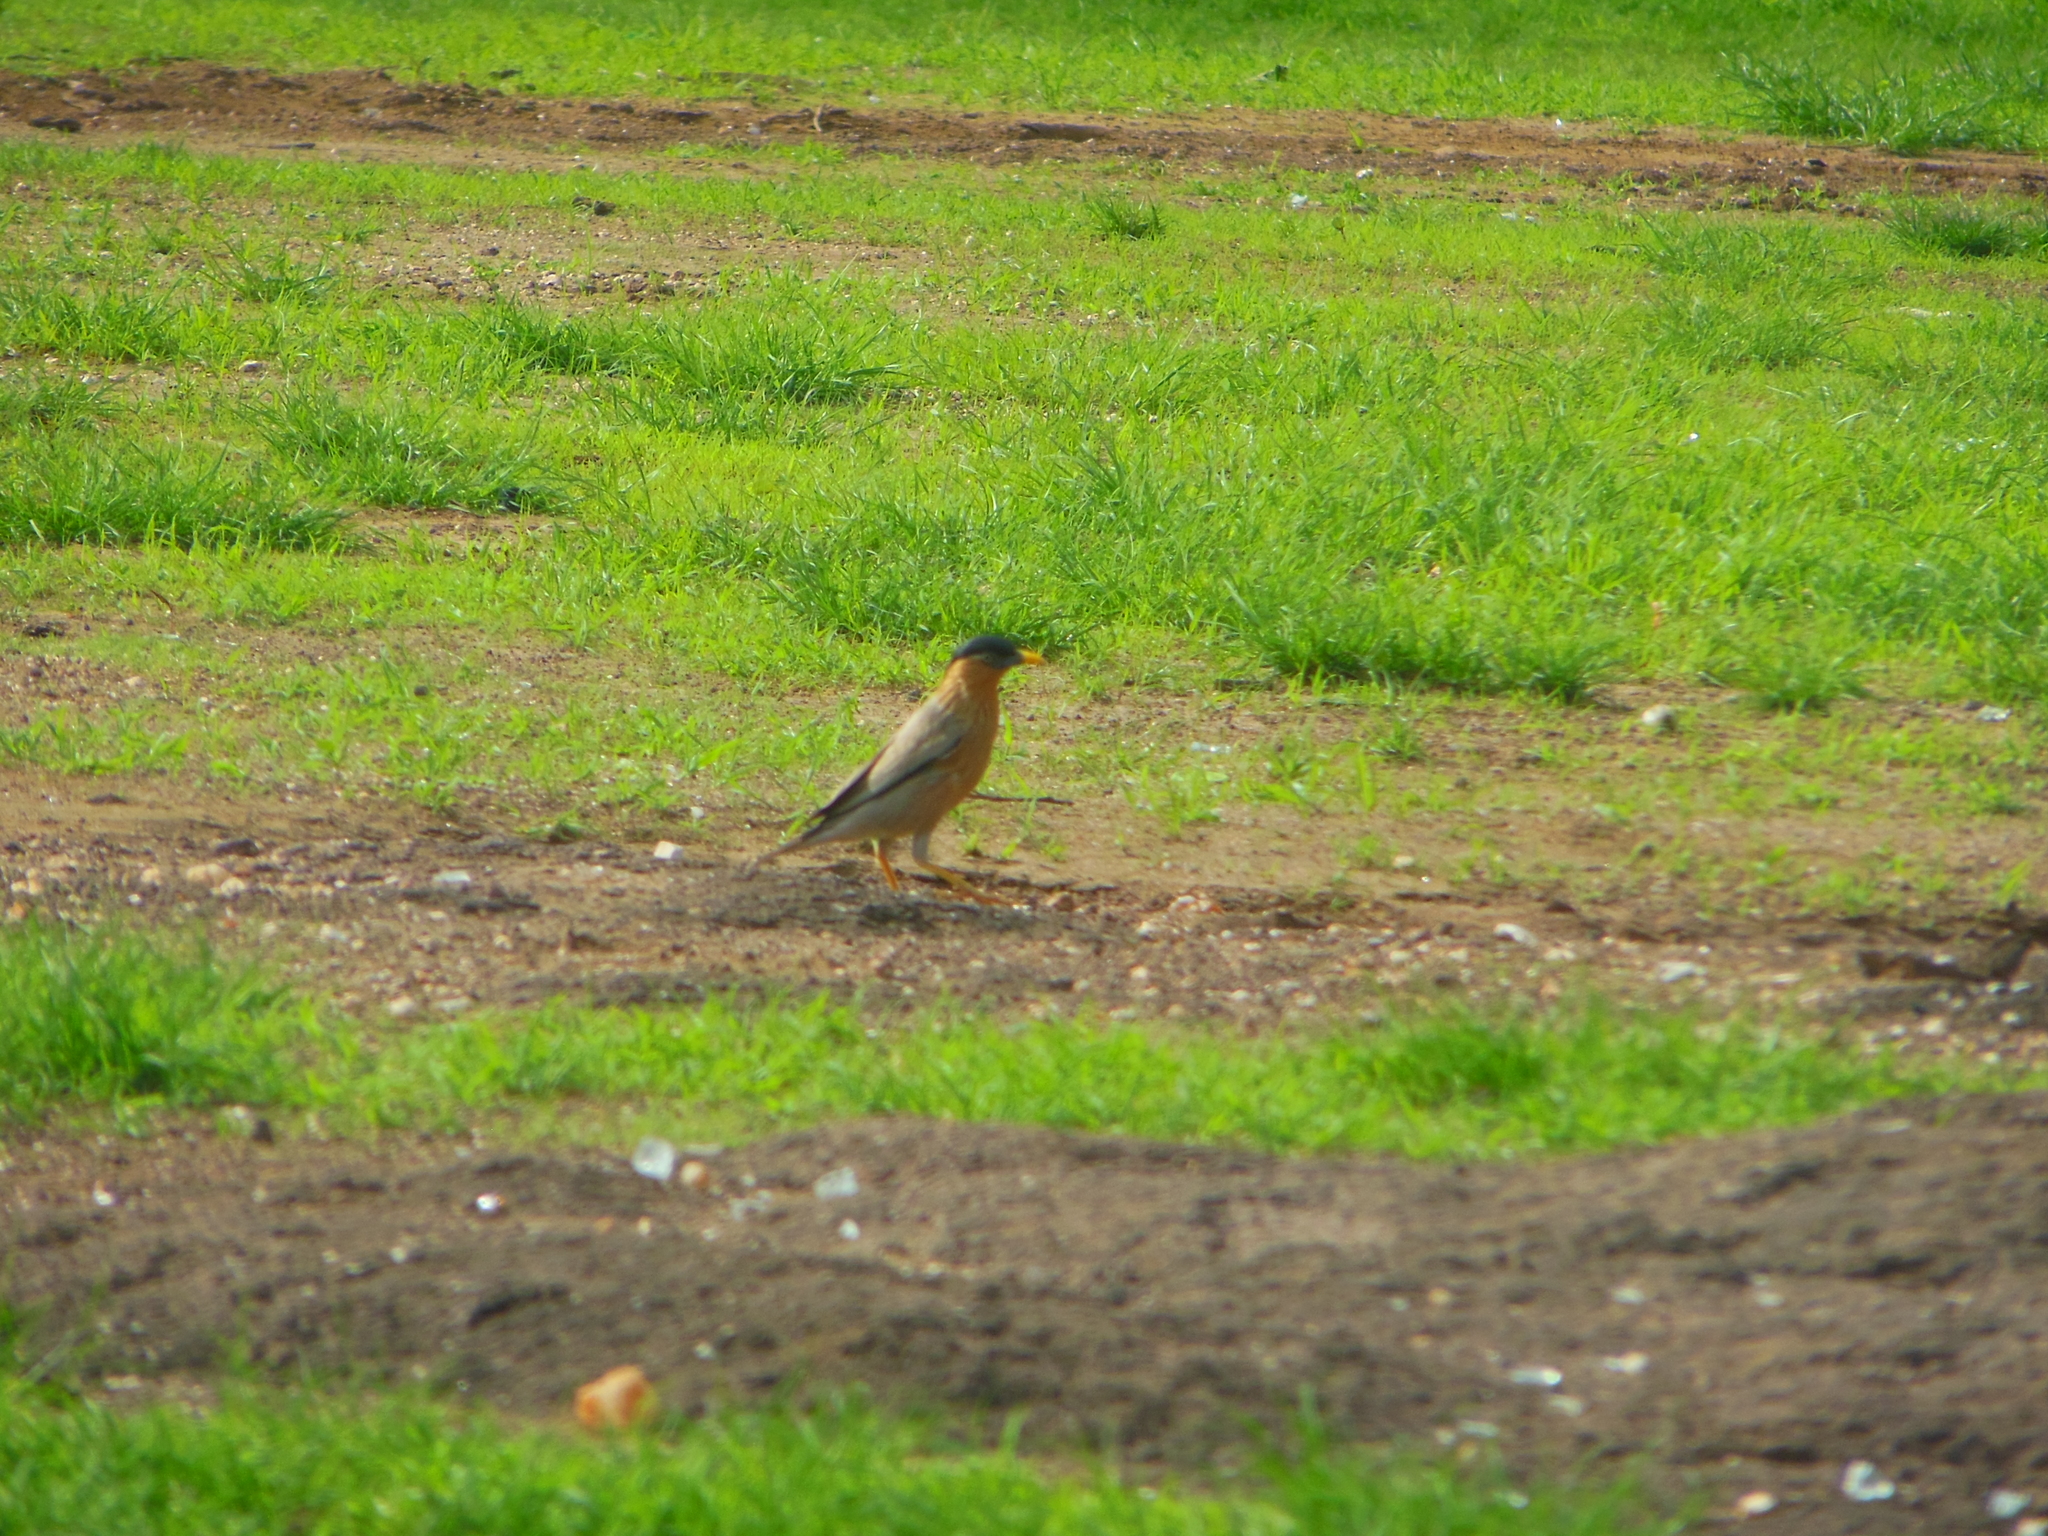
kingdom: Animalia
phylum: Chordata
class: Aves
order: Passeriformes
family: Sturnidae
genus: Sturnia
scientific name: Sturnia pagodarum
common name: Brahminy starling
